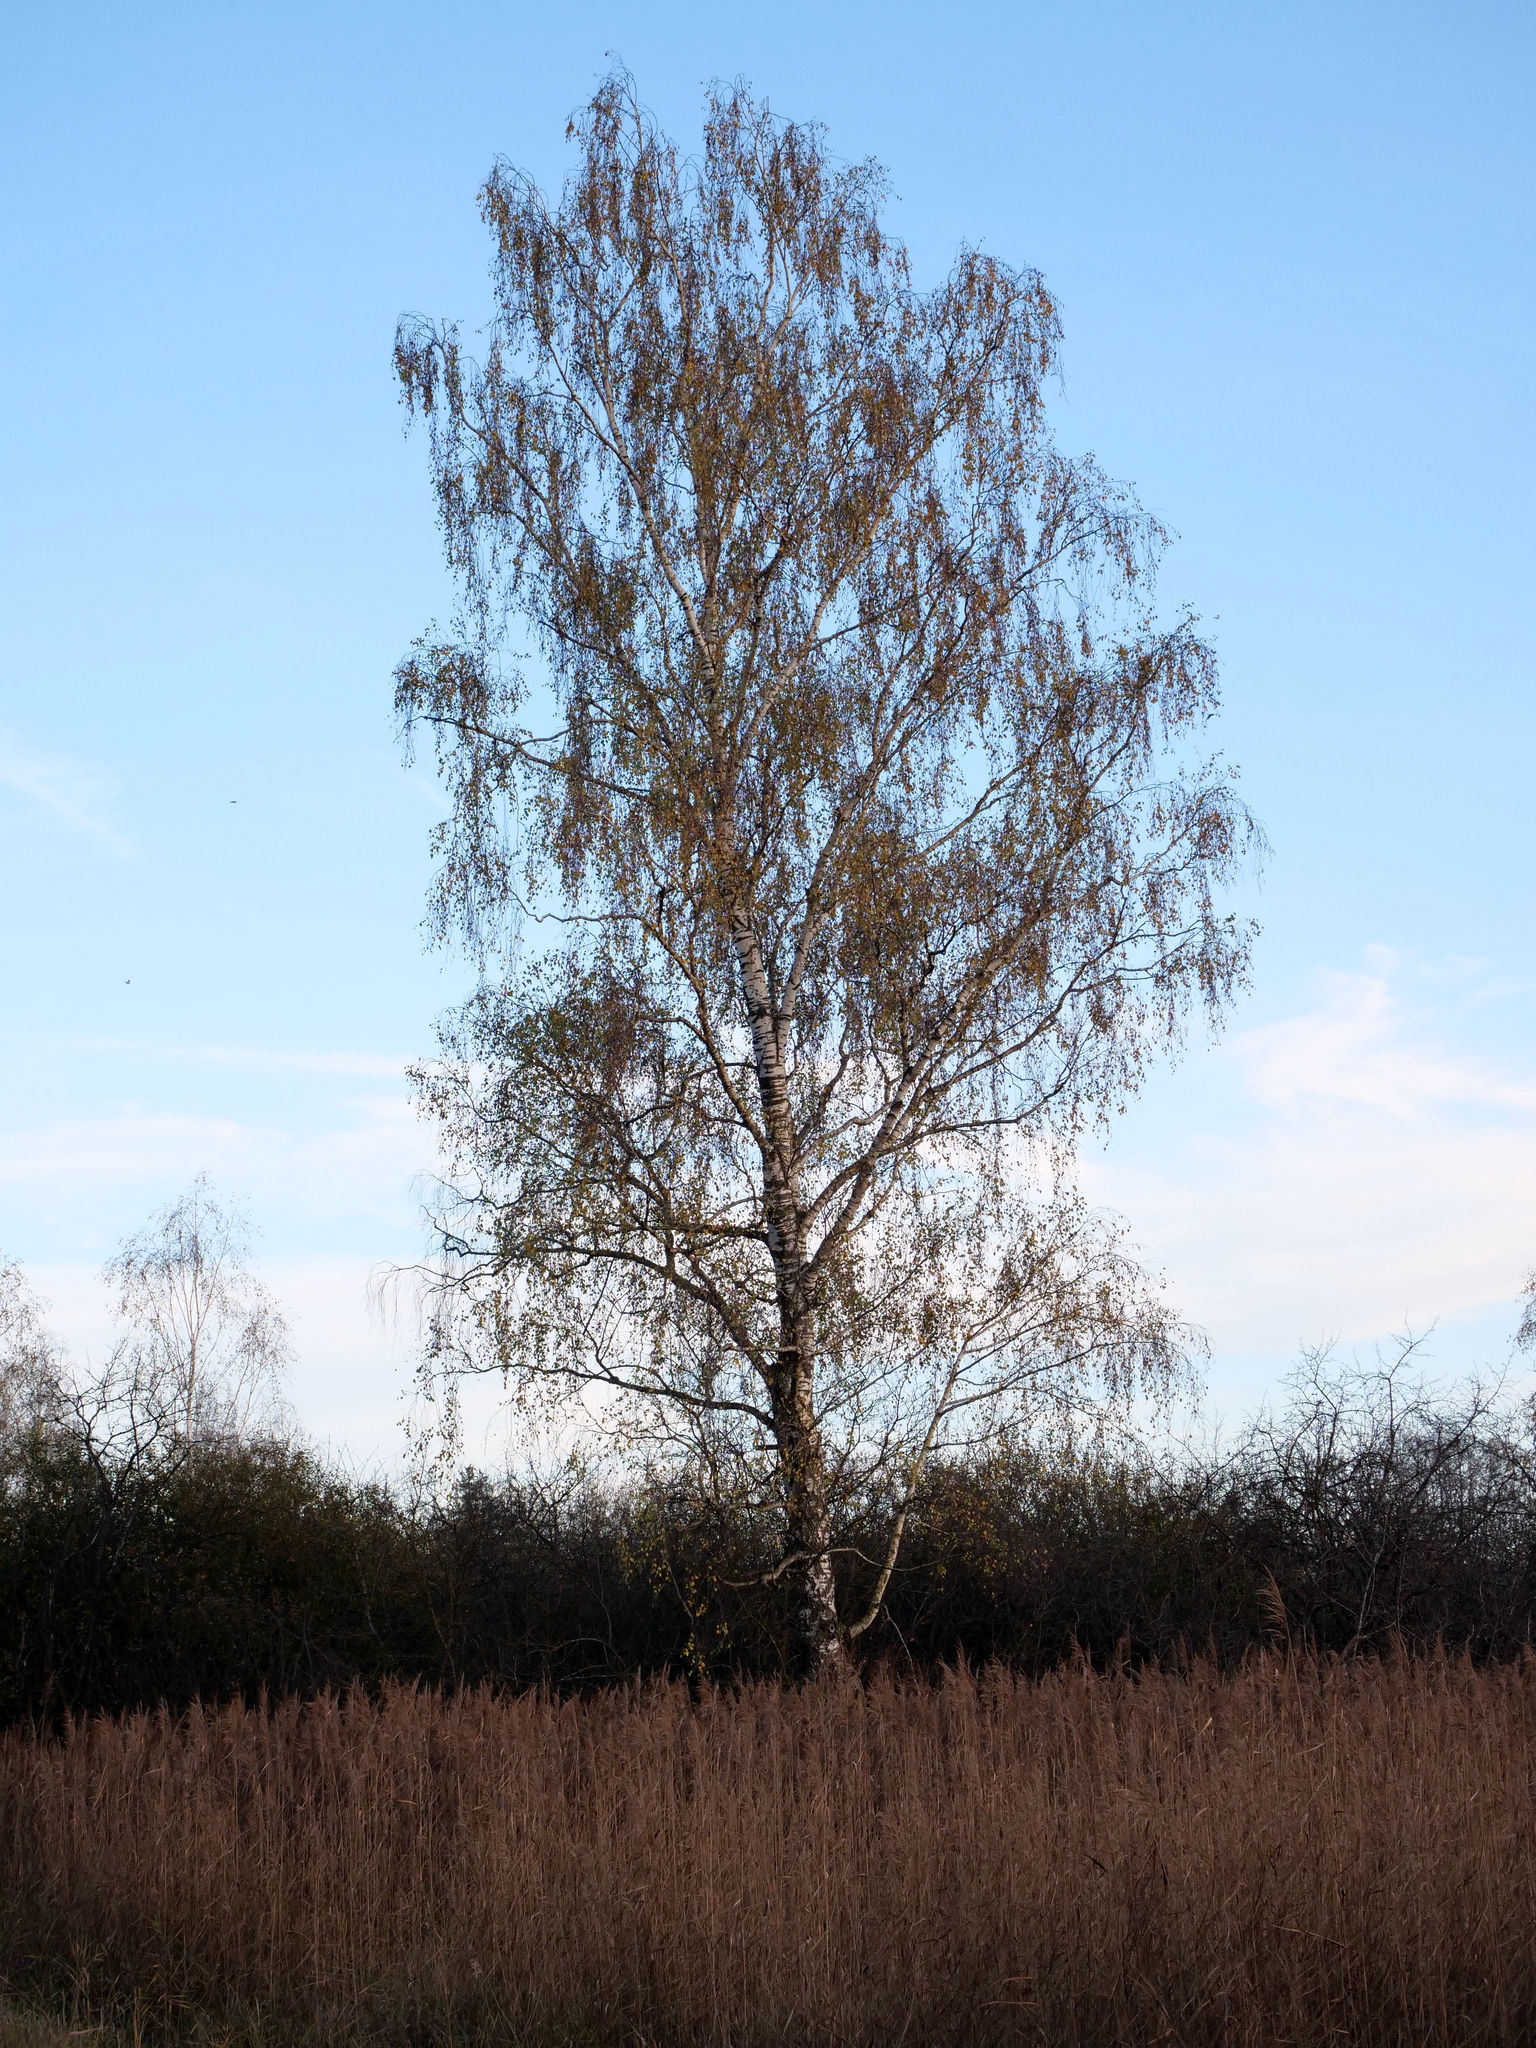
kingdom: Plantae
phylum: Tracheophyta
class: Magnoliopsida
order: Fagales
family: Betulaceae
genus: Betula
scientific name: Betula pendula
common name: Silver birch
